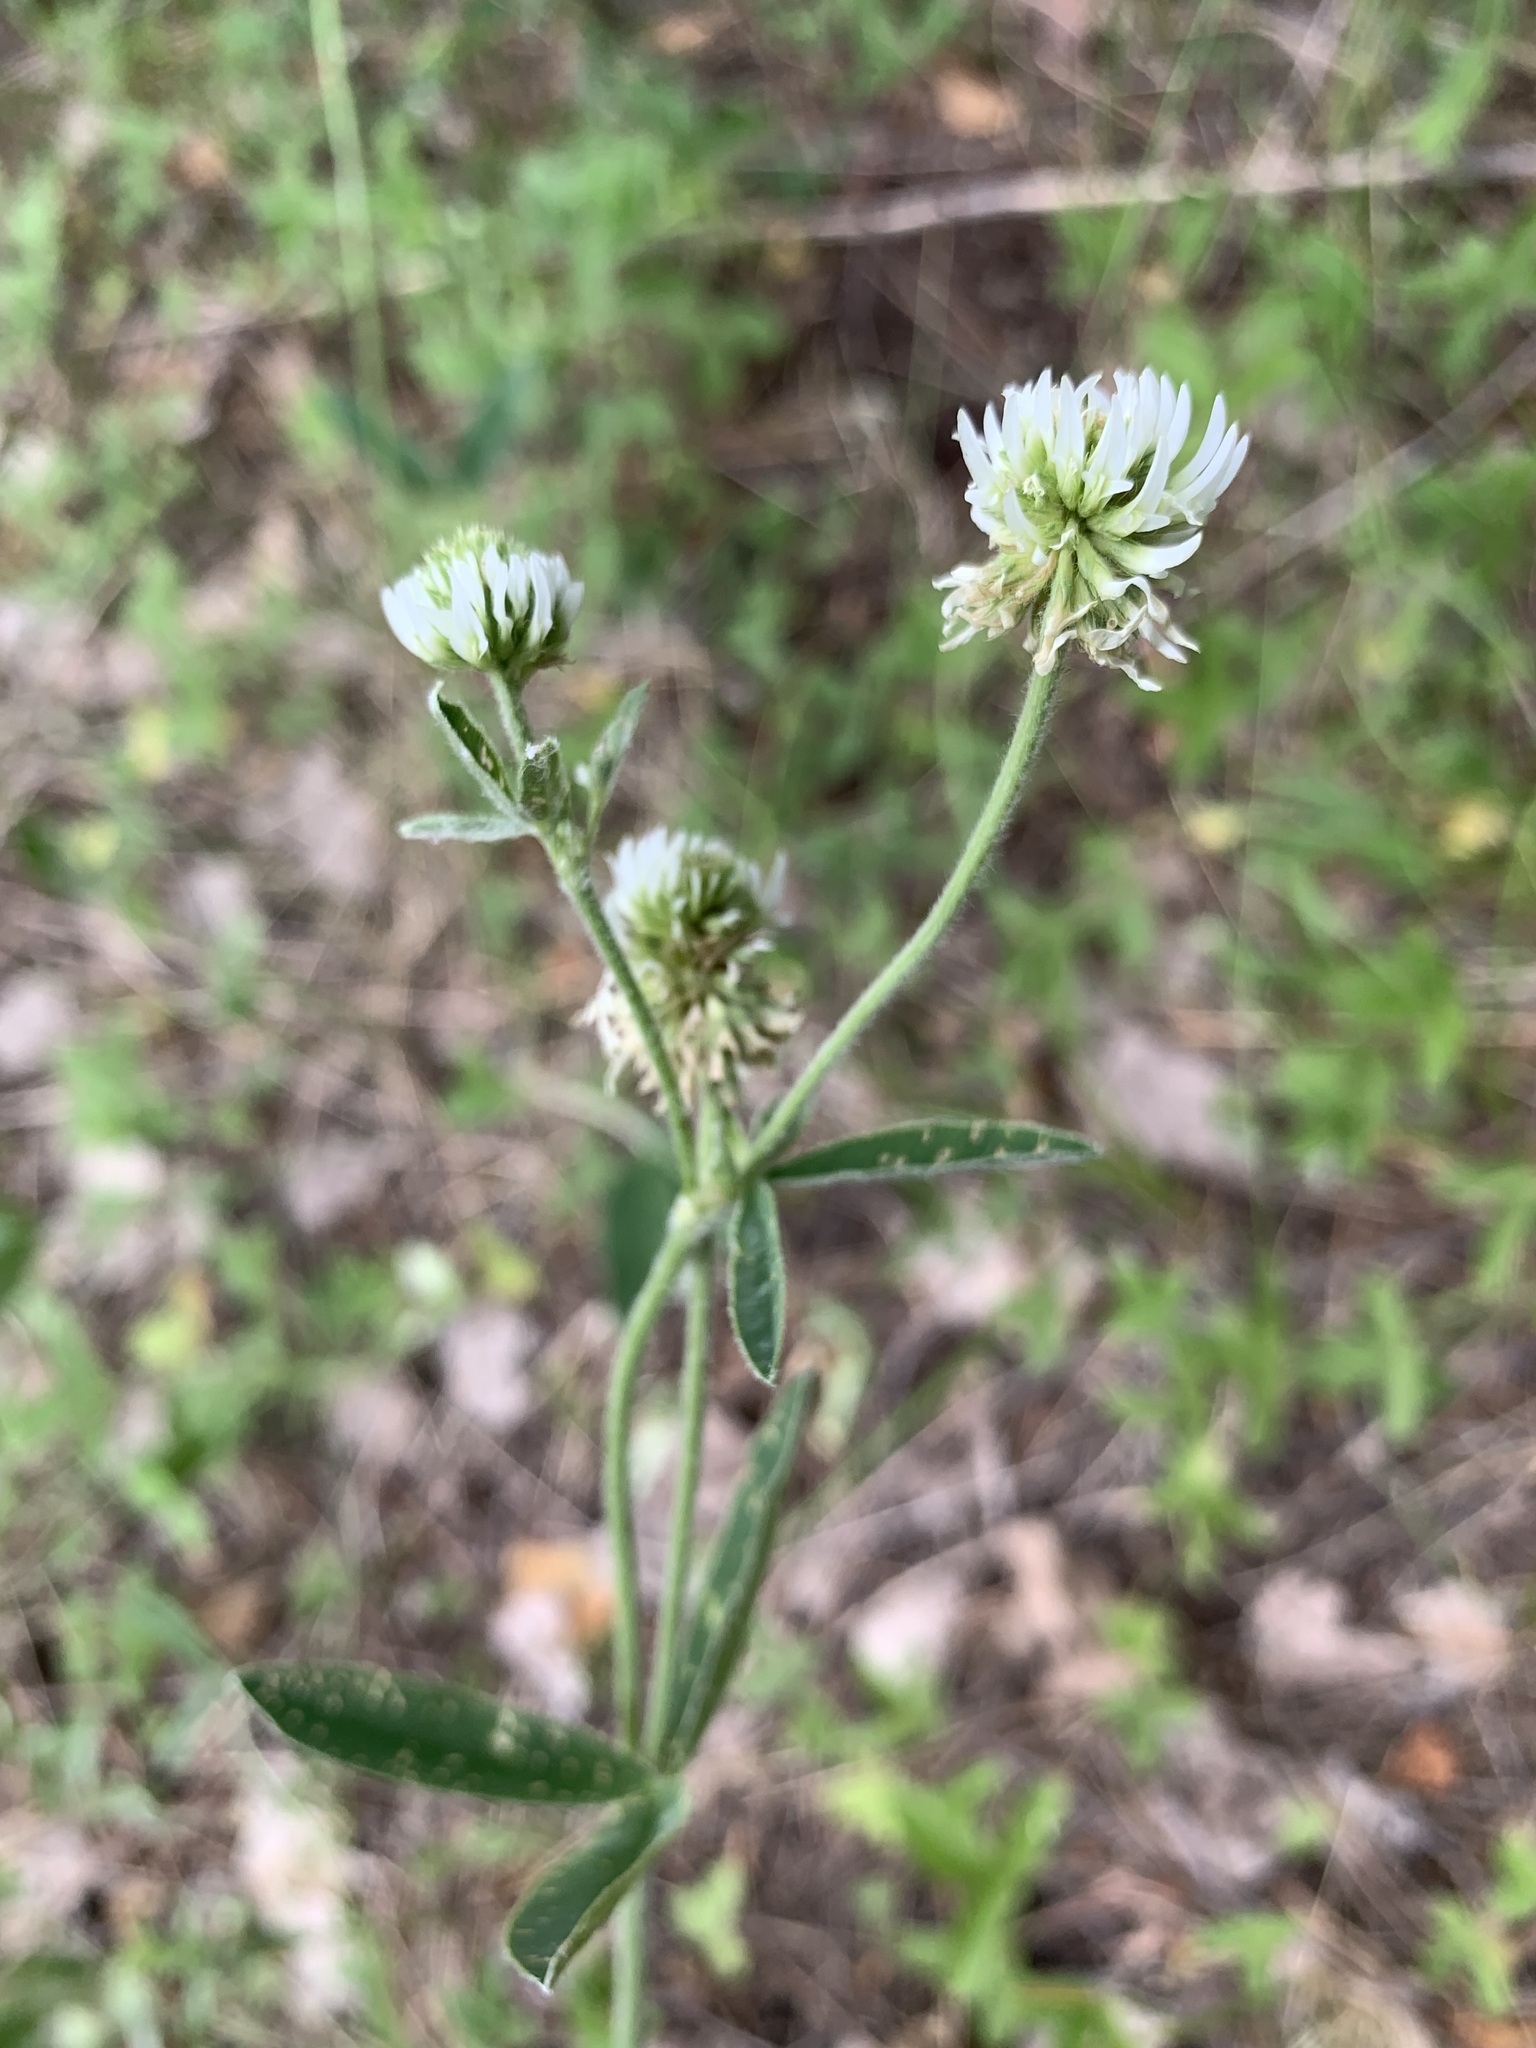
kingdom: Plantae
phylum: Tracheophyta
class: Magnoliopsida
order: Fabales
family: Fabaceae
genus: Trifolium
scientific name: Trifolium montanum
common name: Mountain clover
